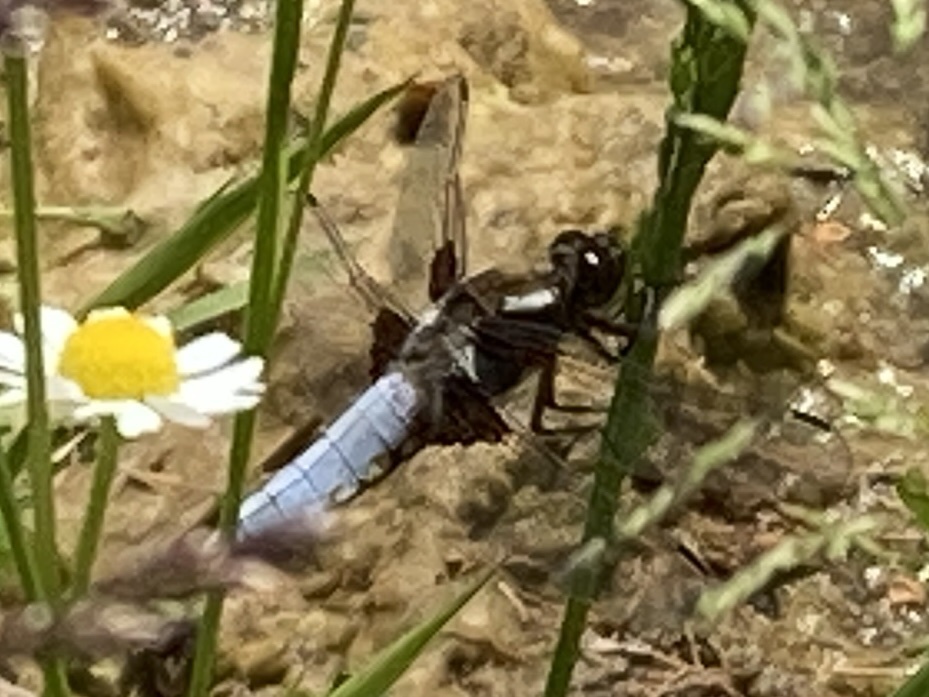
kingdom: Animalia
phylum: Arthropoda
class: Insecta
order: Odonata
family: Libellulidae
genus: Libellula
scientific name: Libellula depressa
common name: Broad-bodied chaser
